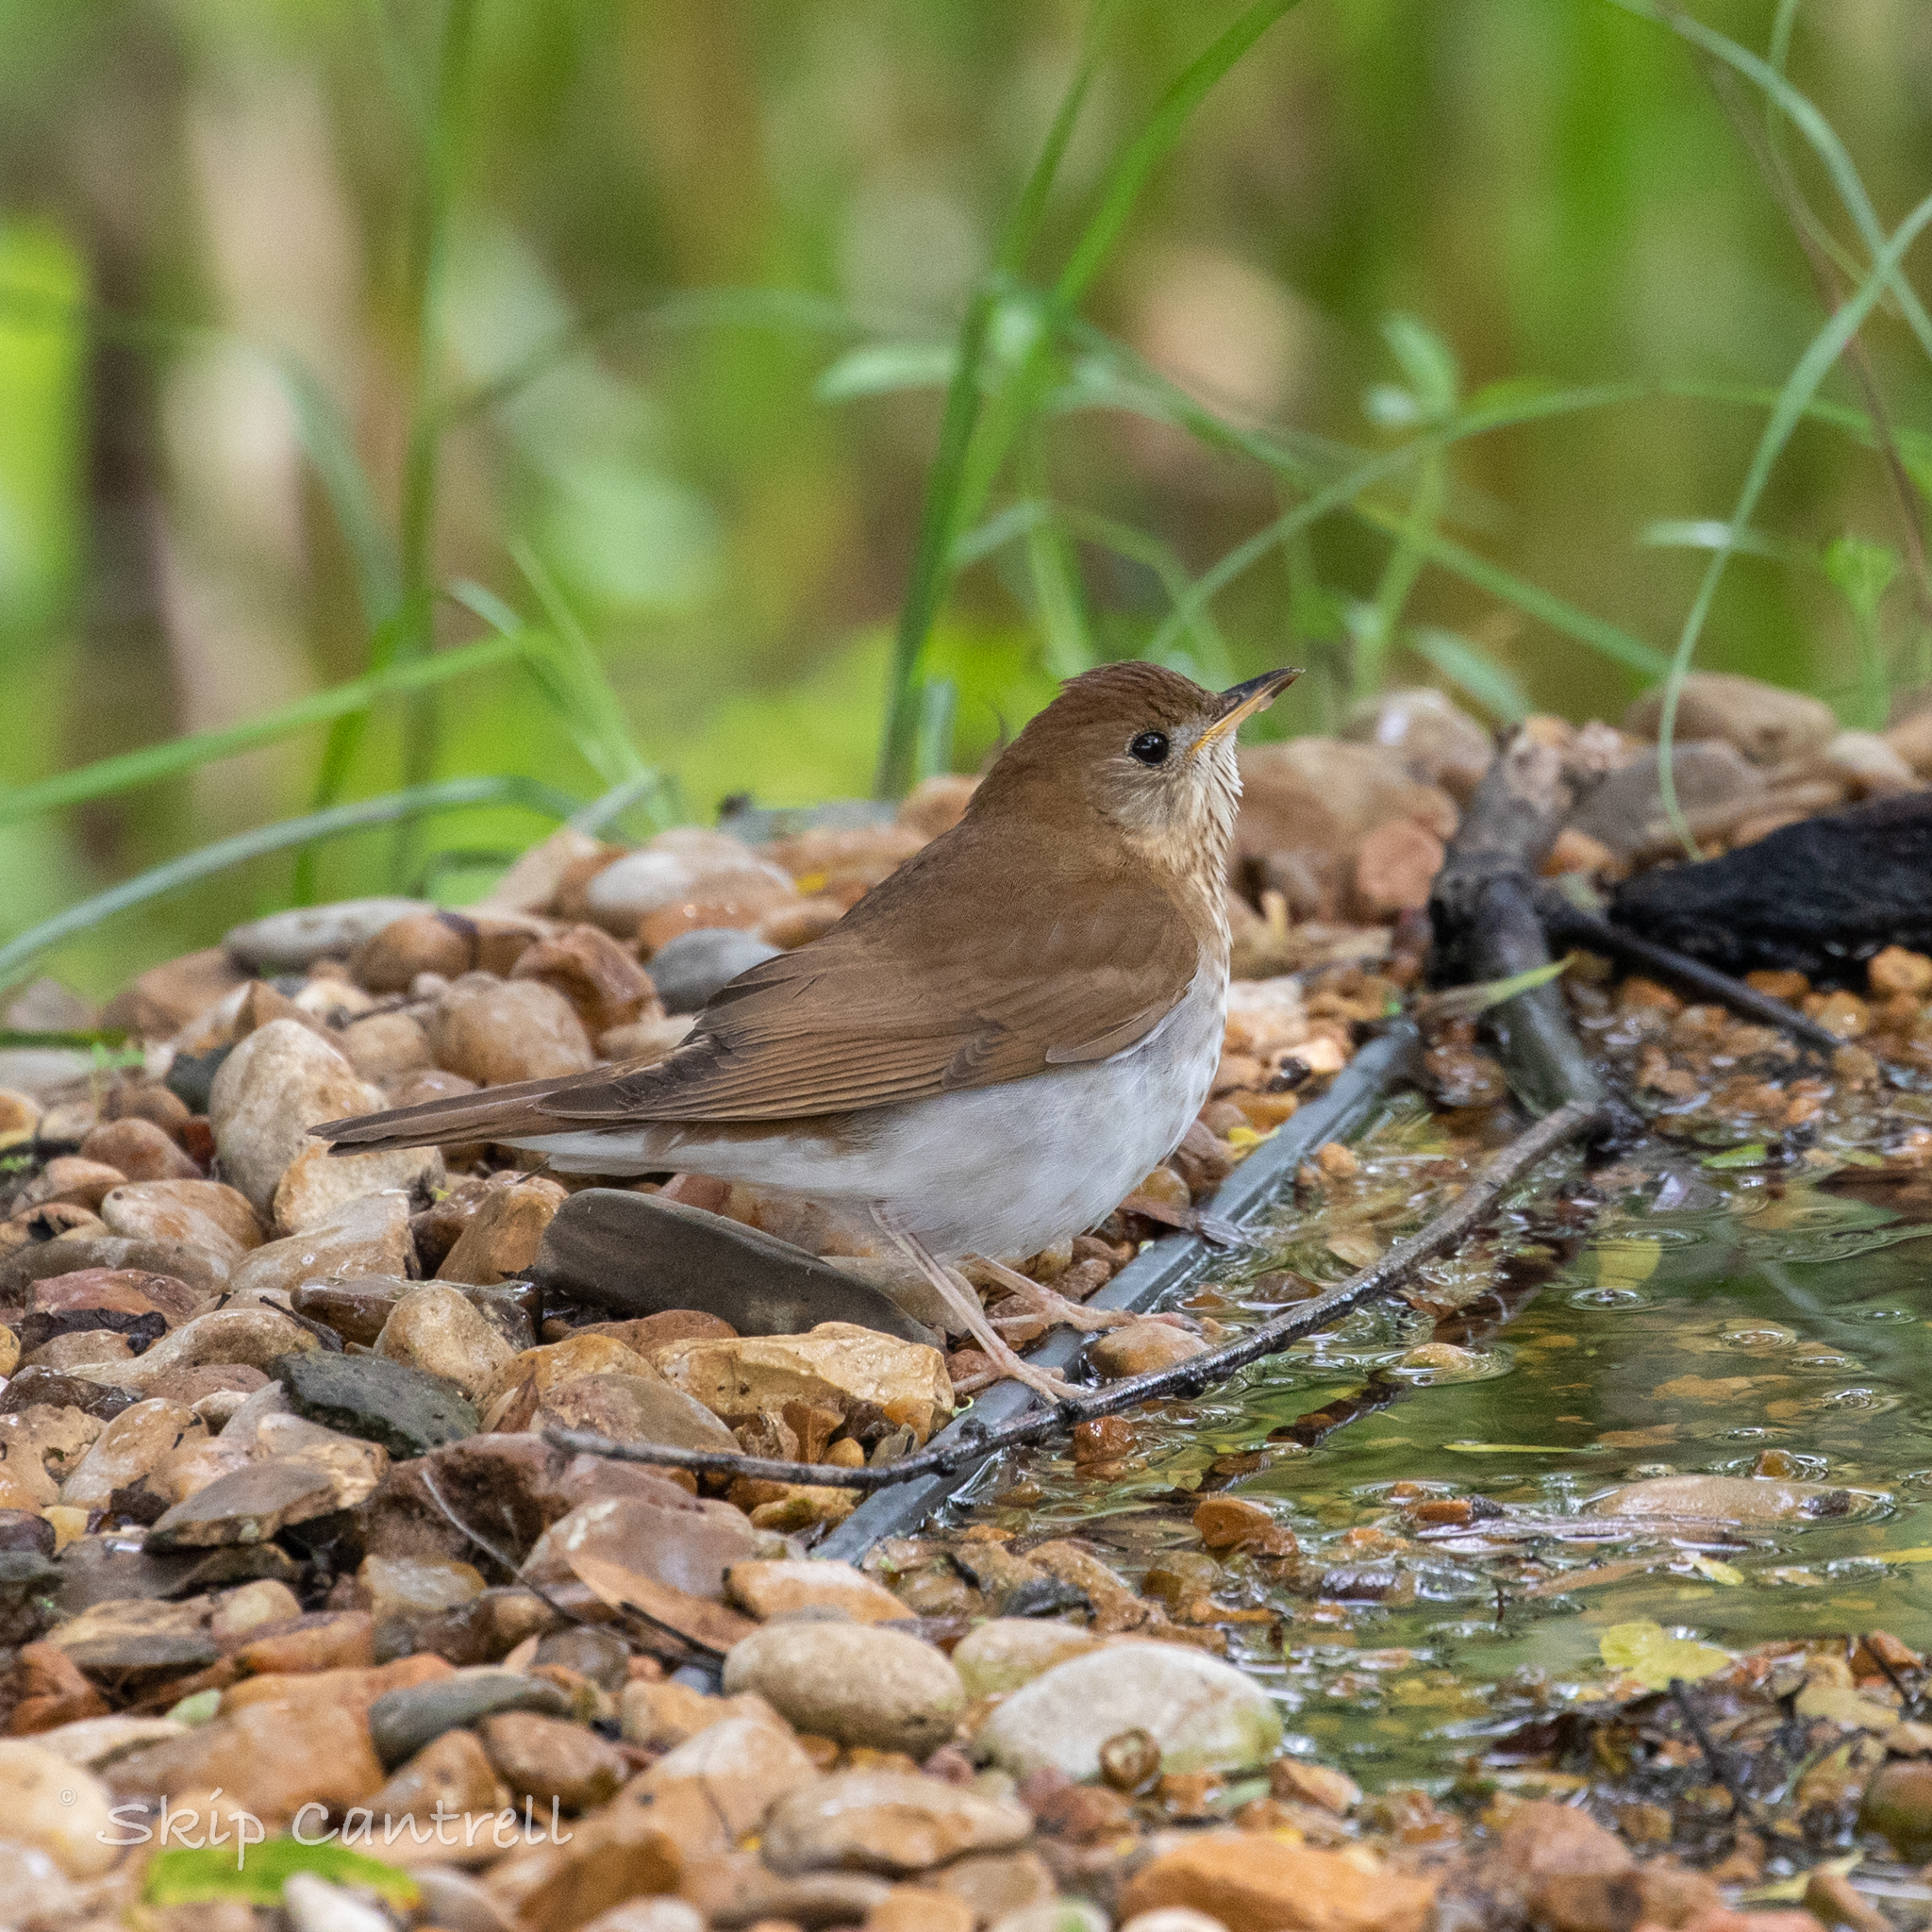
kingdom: Animalia
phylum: Chordata
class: Aves
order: Passeriformes
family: Turdidae
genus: Catharus
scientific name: Catharus fuscescens
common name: Veery
